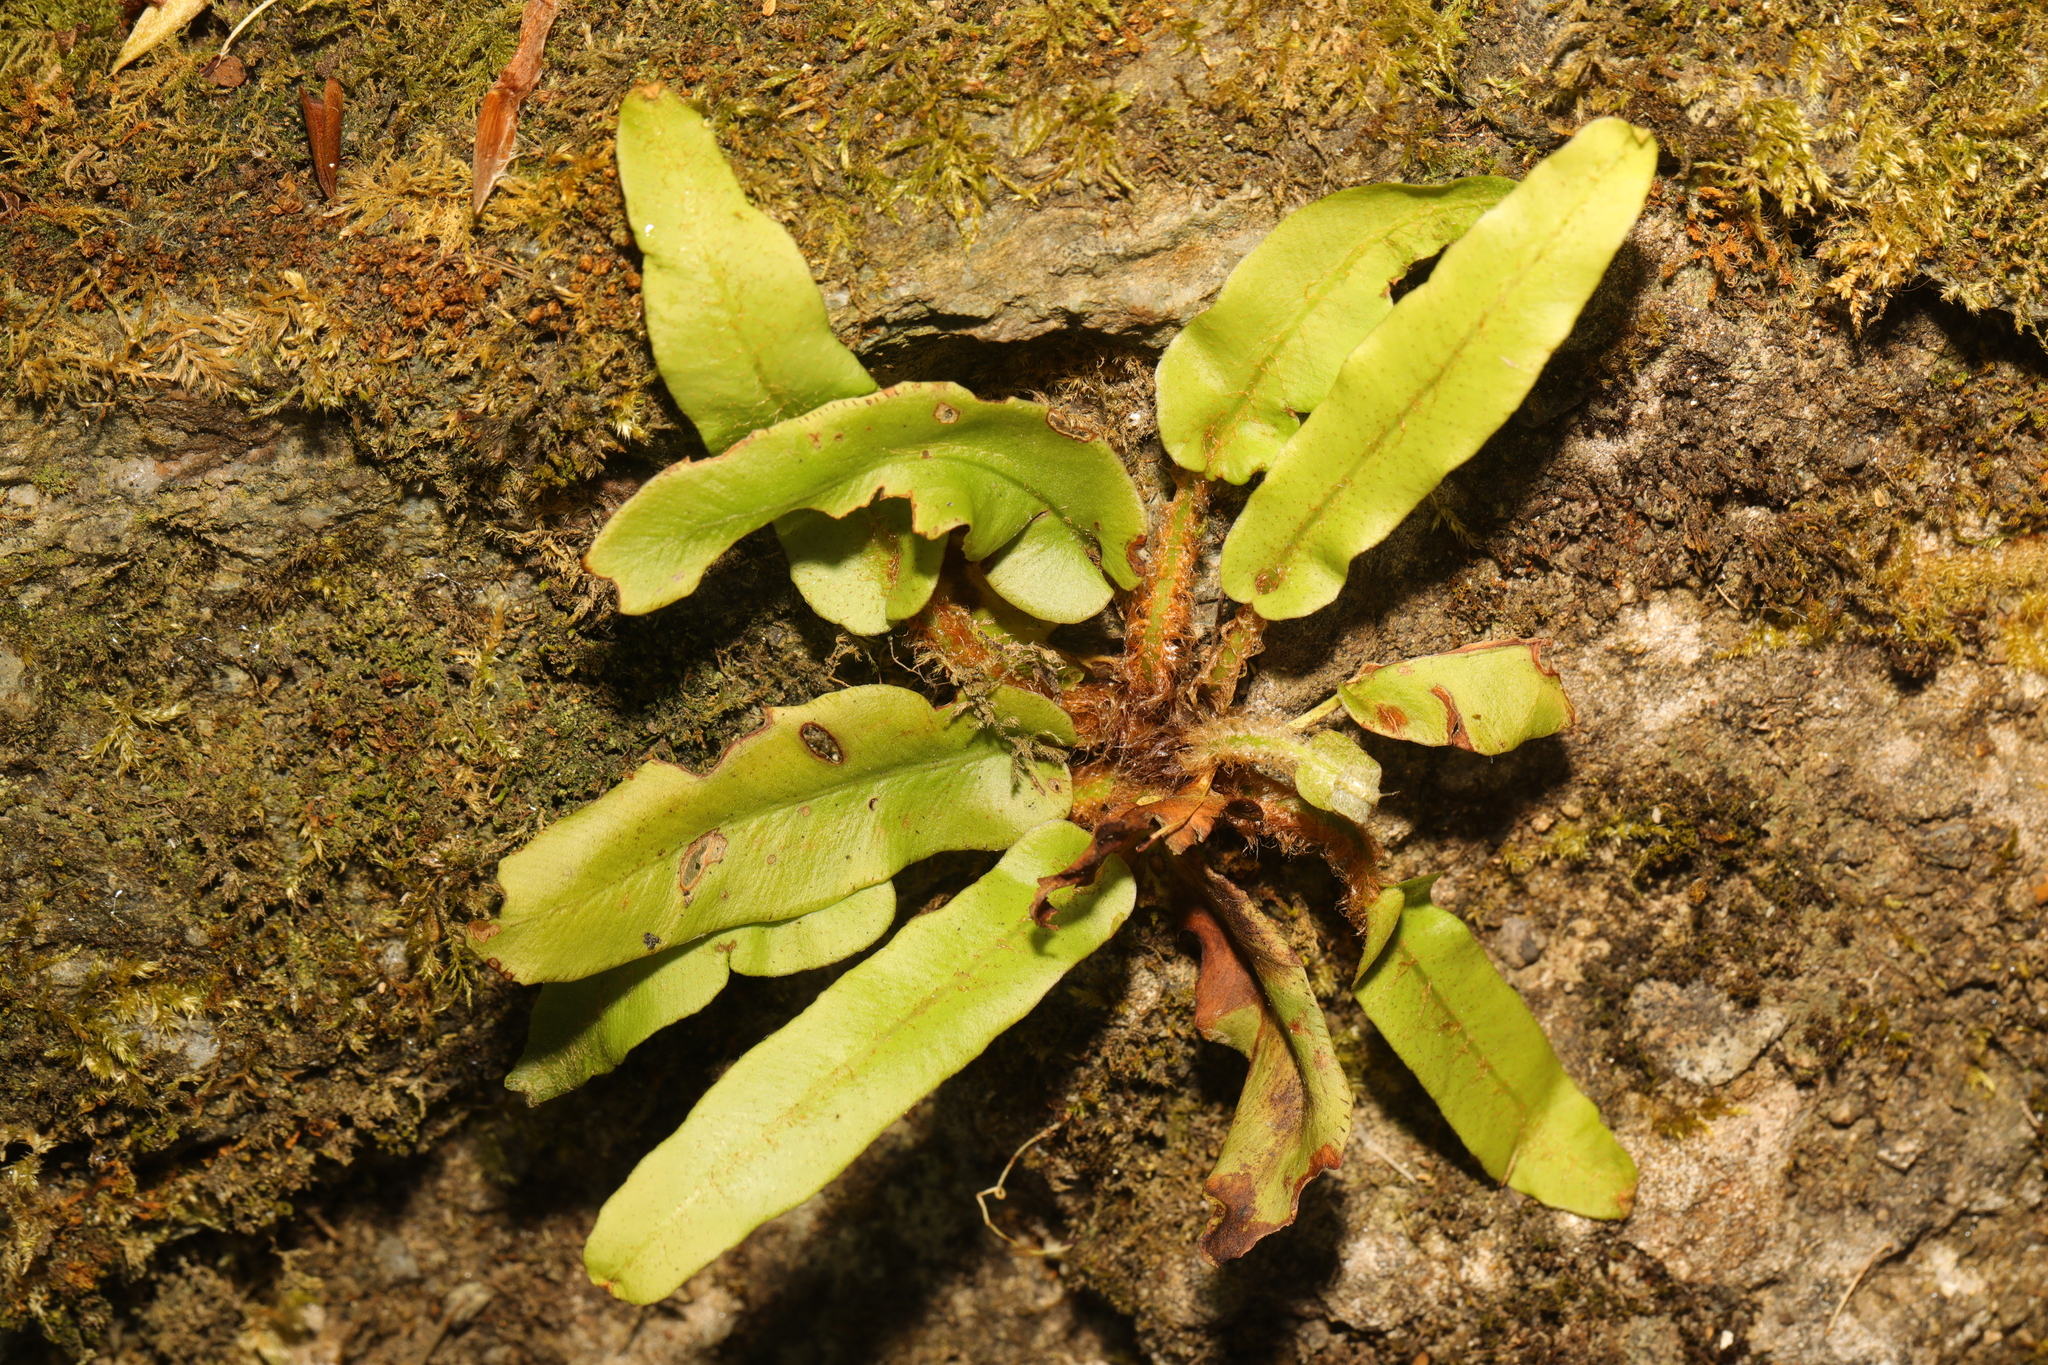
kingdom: Plantae
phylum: Tracheophyta
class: Polypodiopsida
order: Polypodiales
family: Aspleniaceae
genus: Asplenium
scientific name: Asplenium scolopendrium
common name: Hart's-tongue fern
